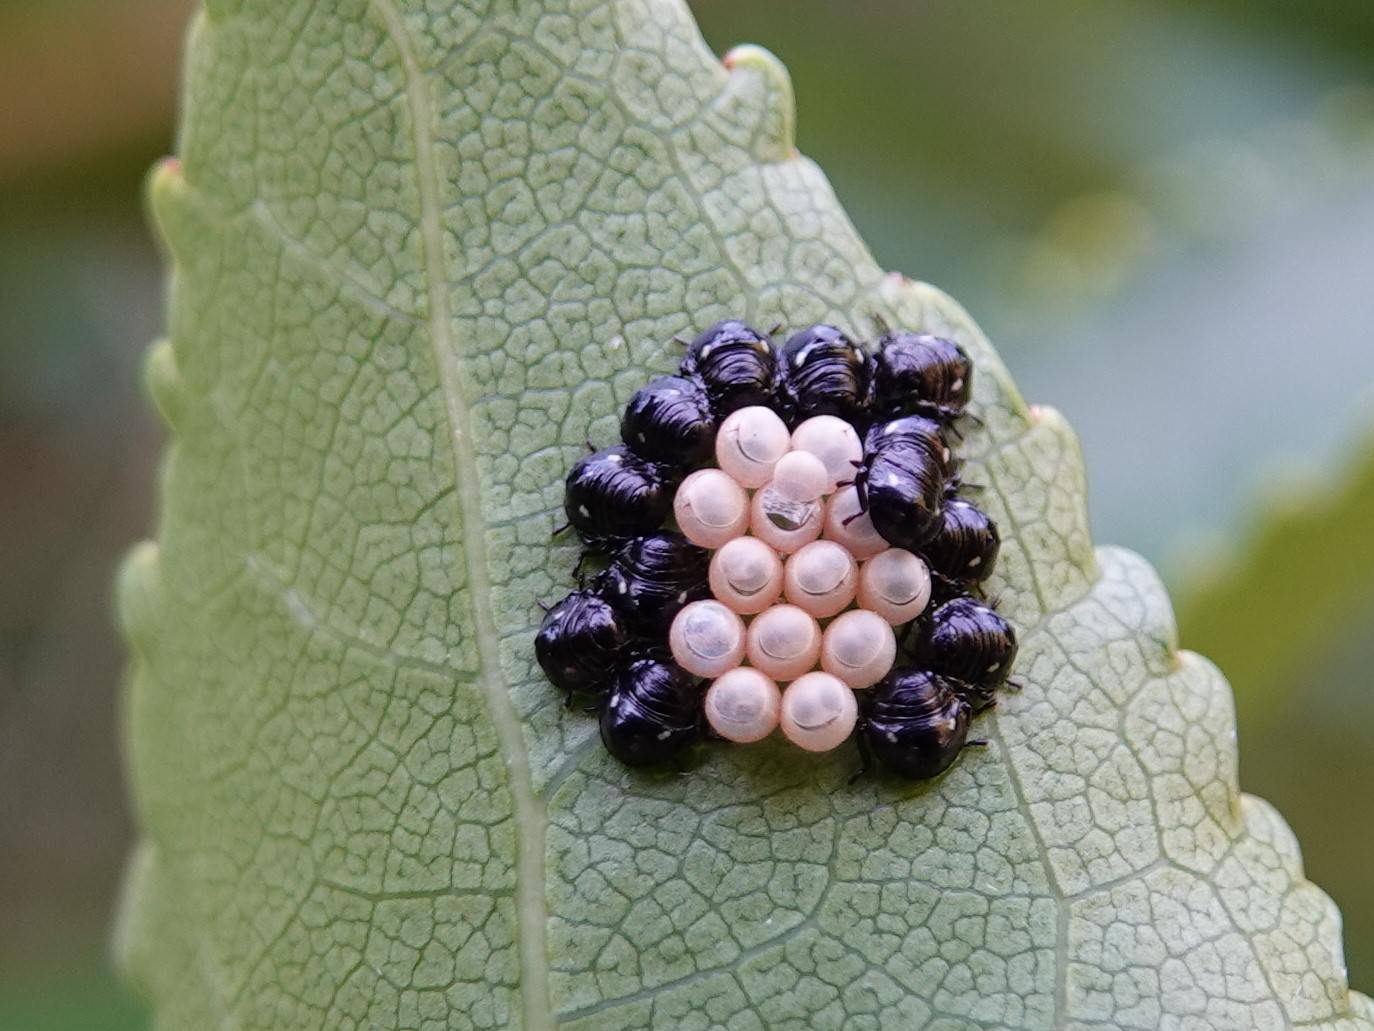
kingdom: Animalia
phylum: Arthropoda
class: Insecta
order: Hemiptera
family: Pentatomidae
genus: Glaucias
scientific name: Glaucias amyota
